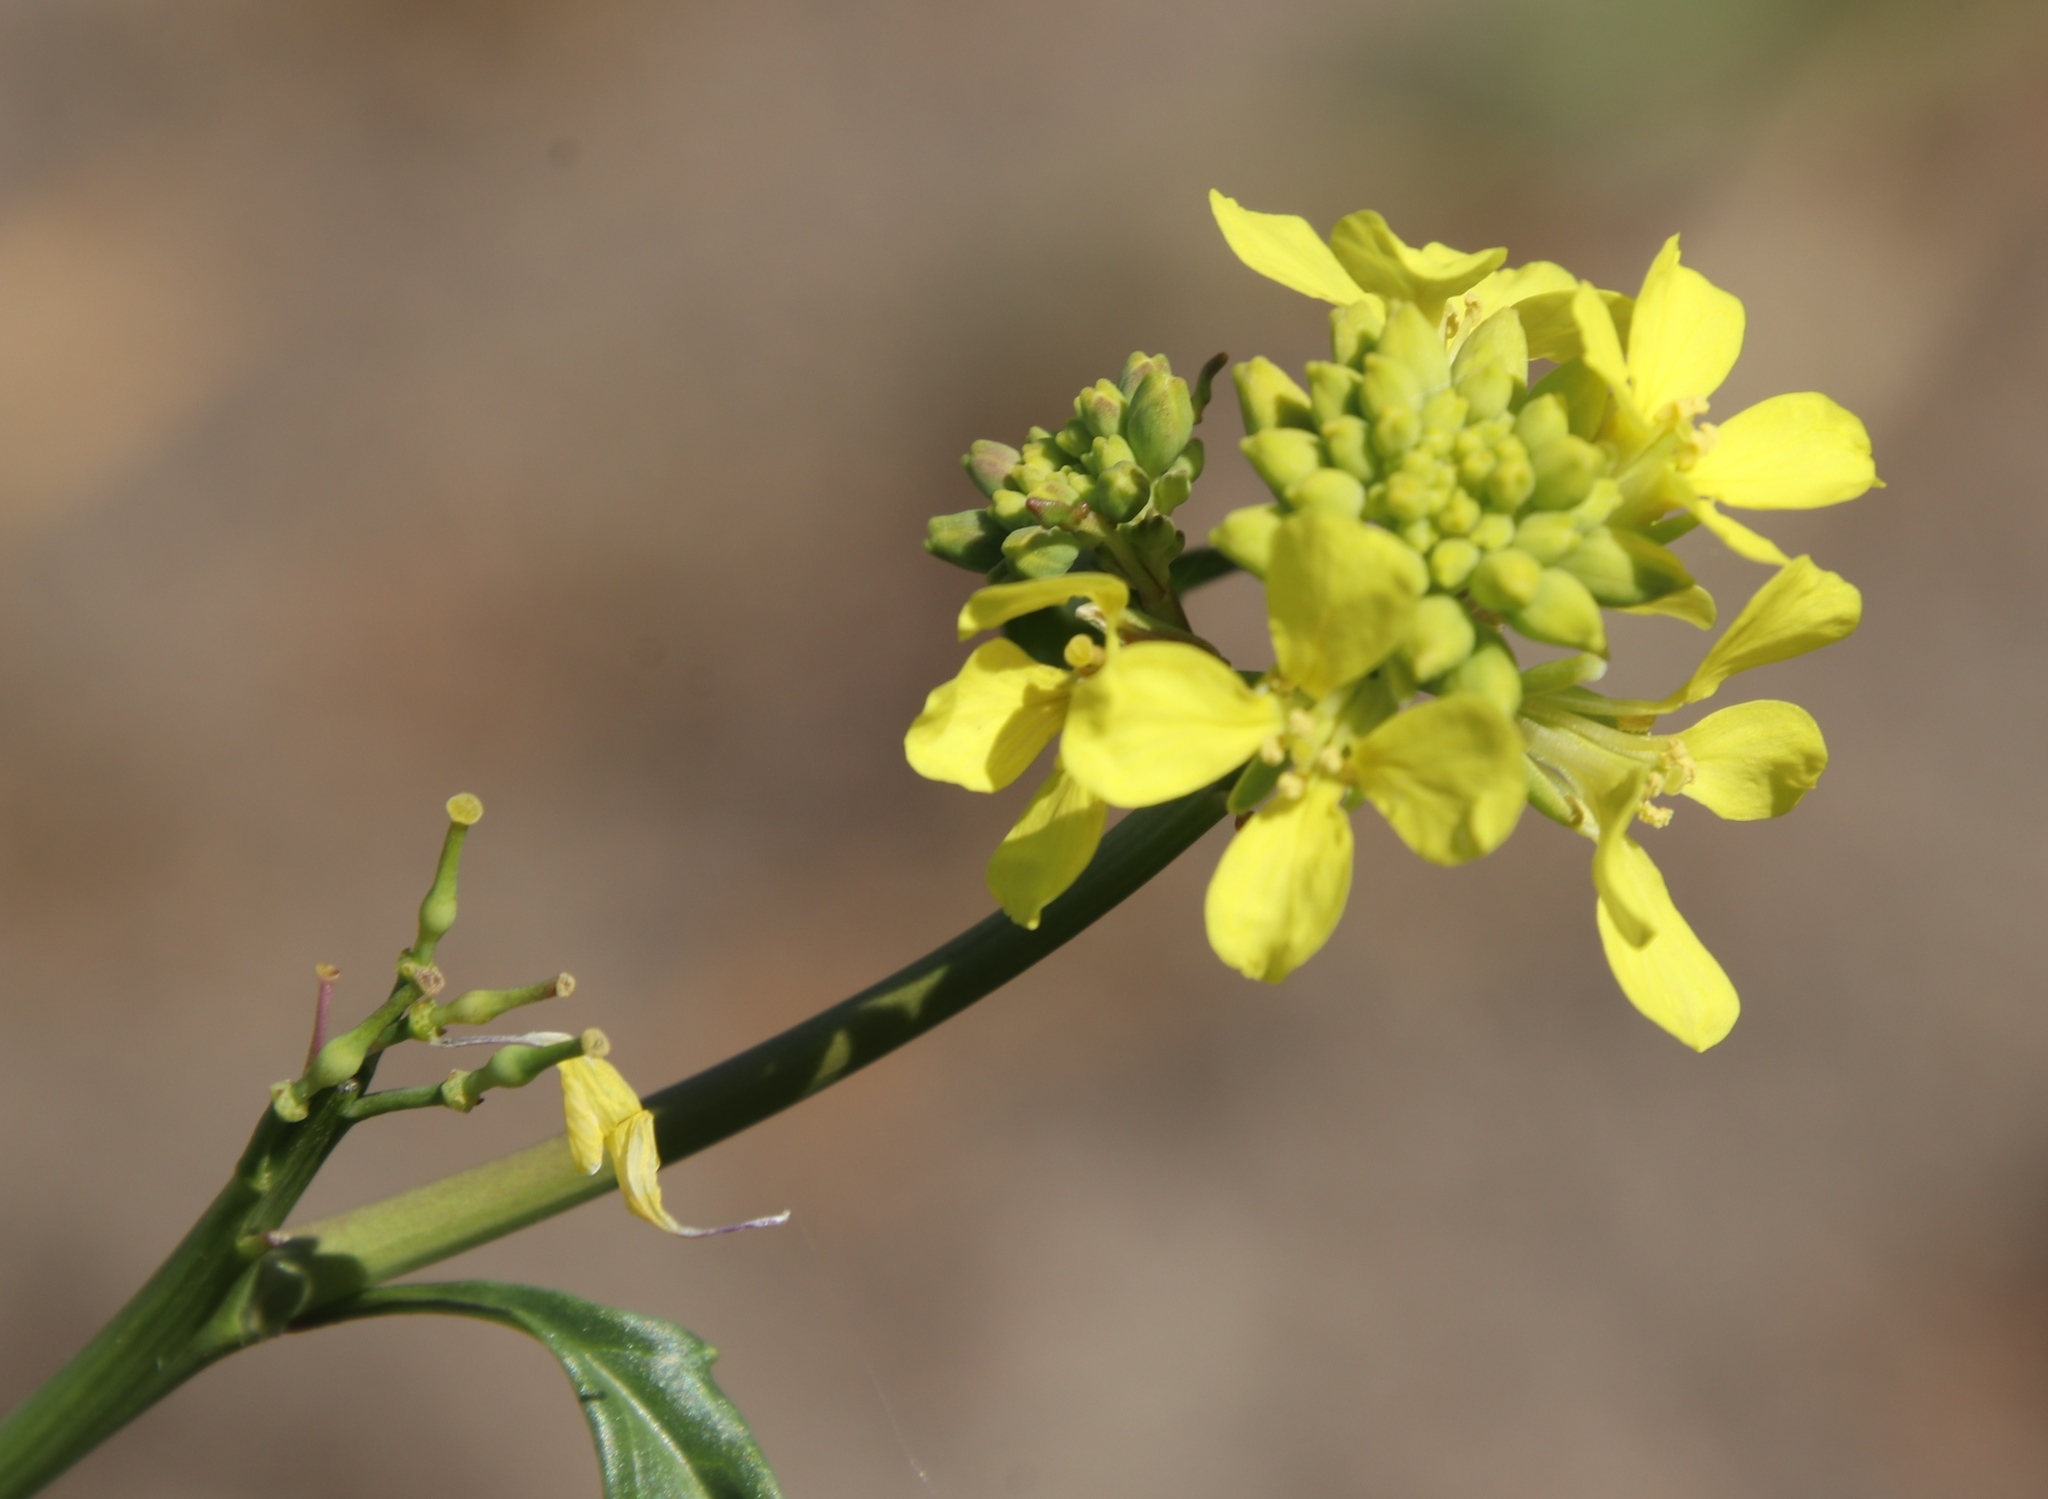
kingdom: Plantae
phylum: Tracheophyta
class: Magnoliopsida
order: Brassicales
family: Brassicaceae
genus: Rapistrum
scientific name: Rapistrum rugosum
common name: Annual bastardcabbage
